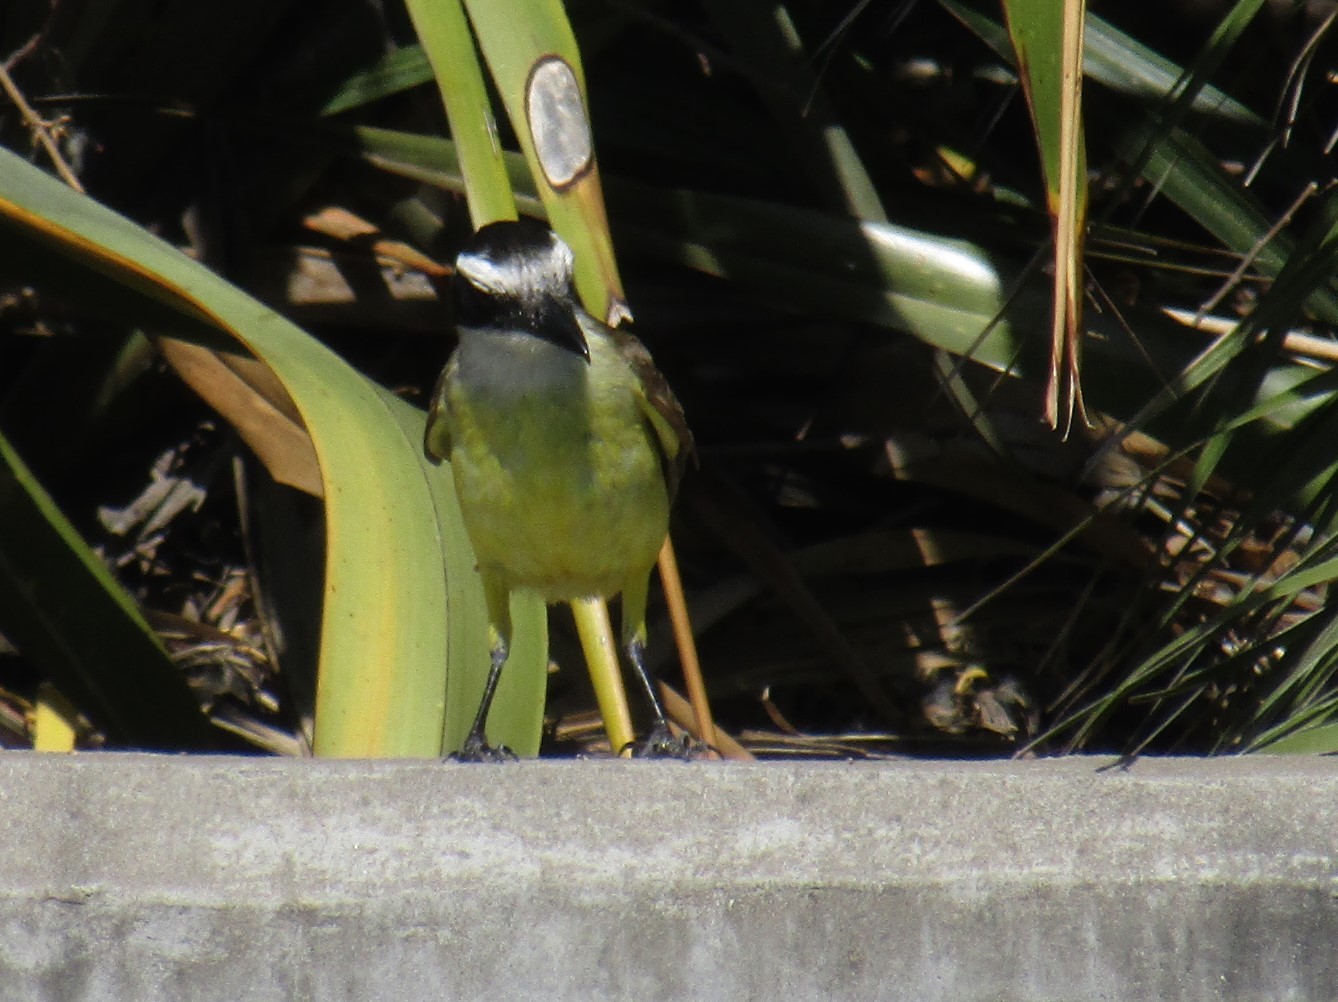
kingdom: Animalia
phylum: Chordata
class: Aves
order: Passeriformes
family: Tyrannidae
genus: Pitangus
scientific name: Pitangus sulphuratus
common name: Great kiskadee
